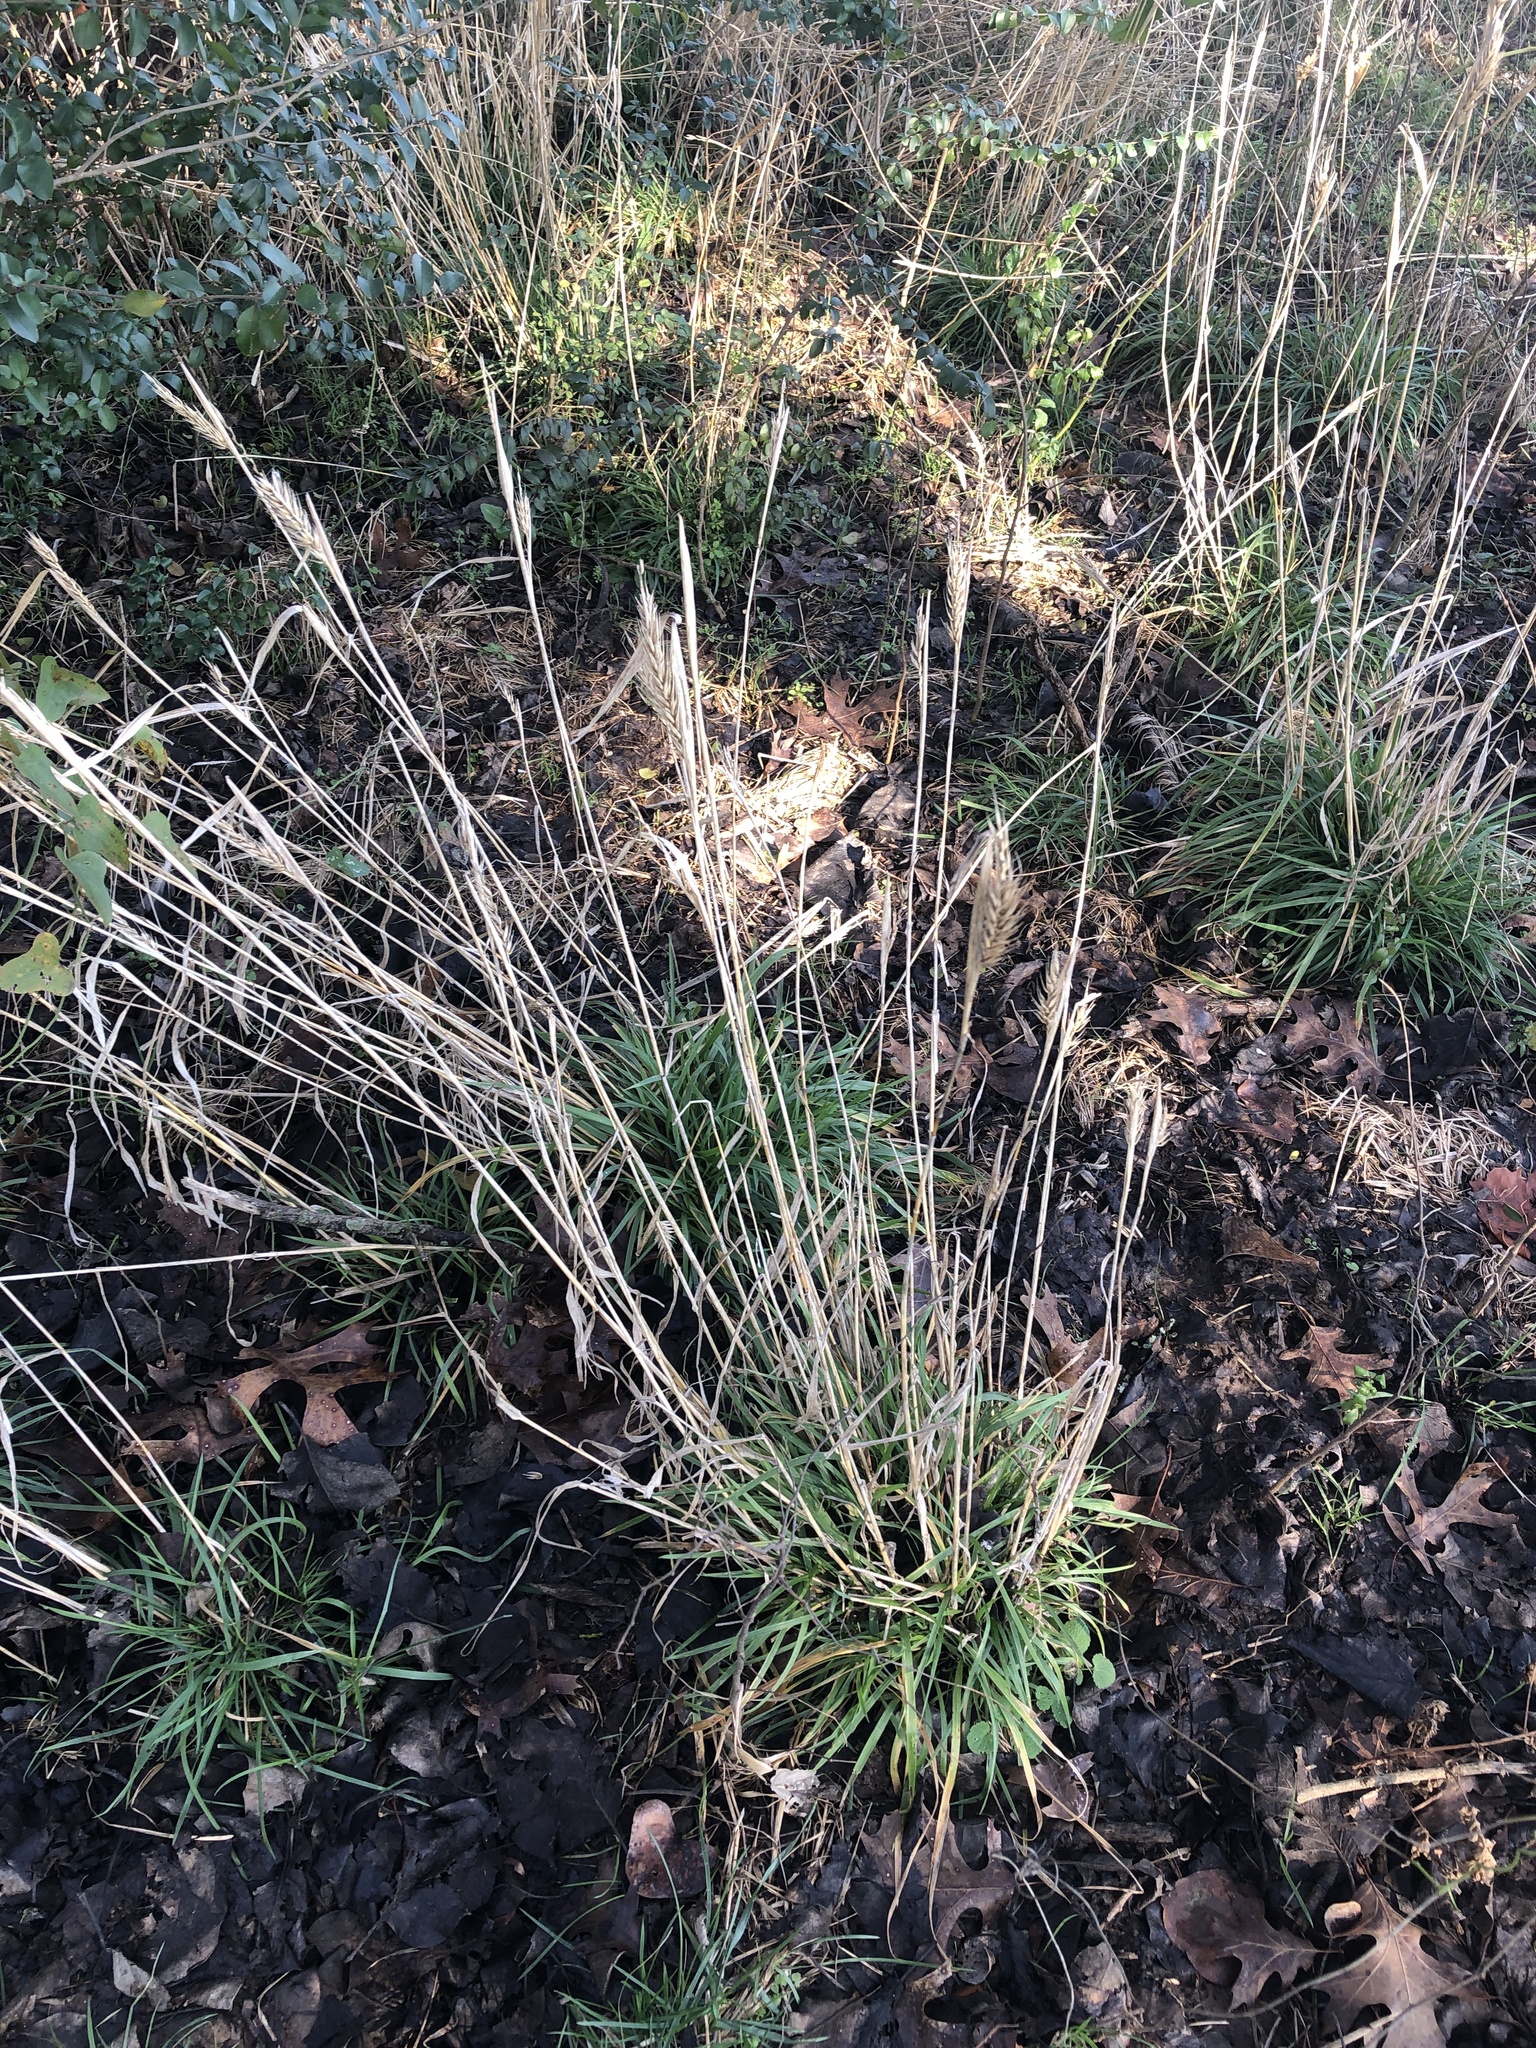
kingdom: Plantae
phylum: Tracheophyta
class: Liliopsida
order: Poales
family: Poaceae
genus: Elymus
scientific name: Elymus virginicus
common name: Common eastern wildrye
